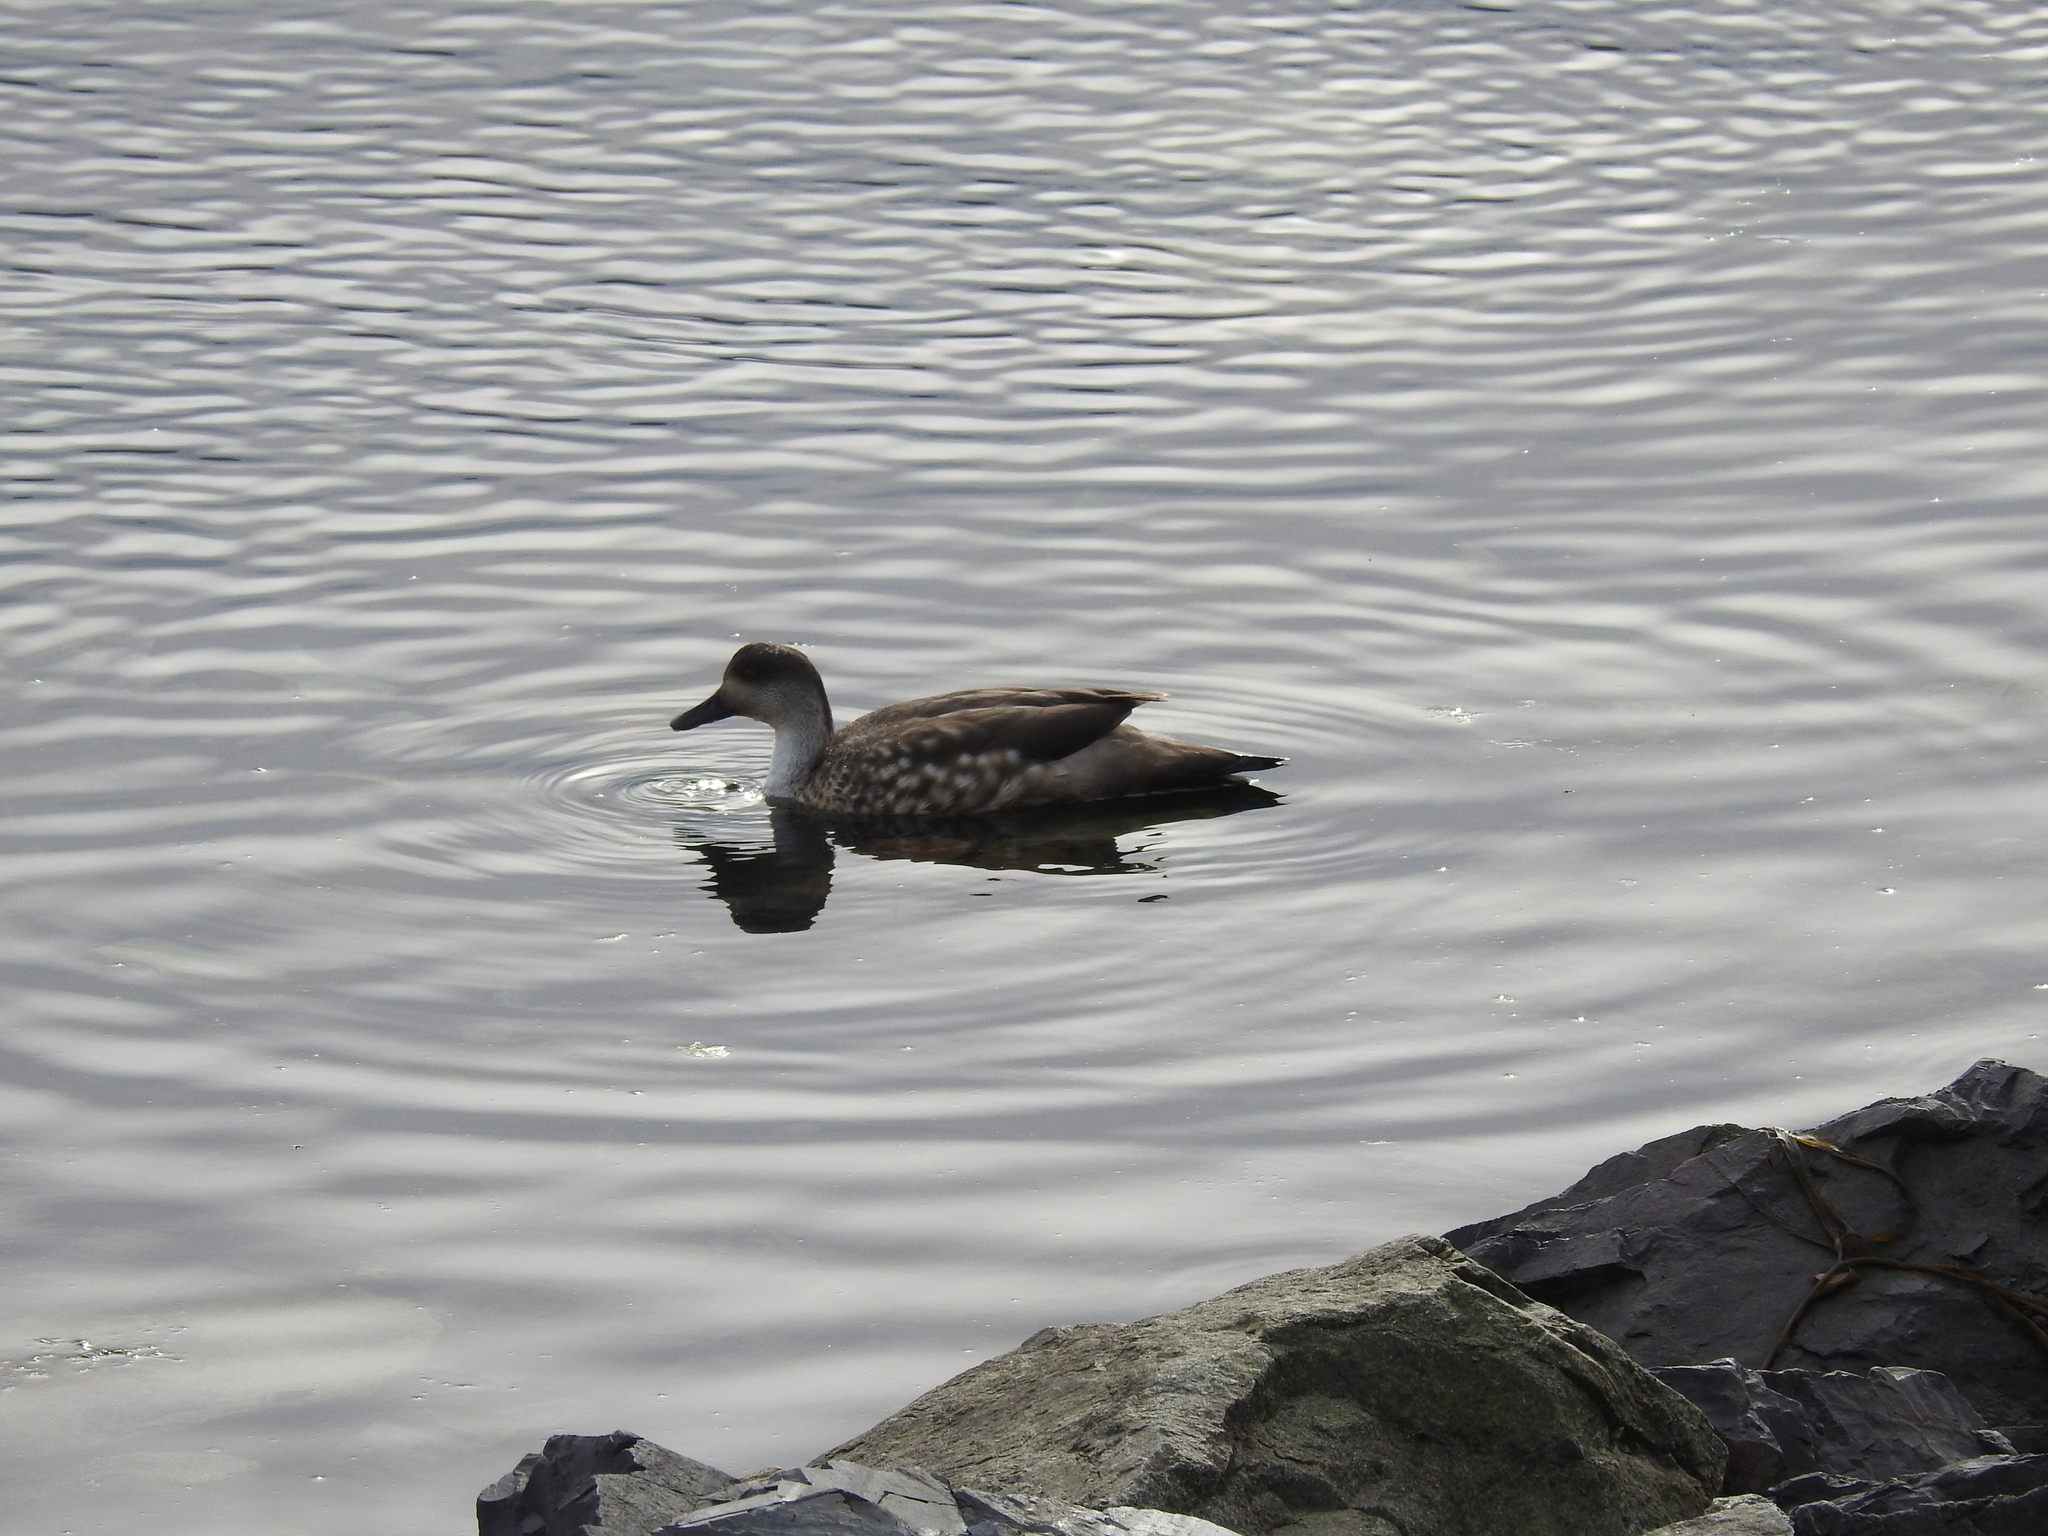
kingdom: Animalia
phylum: Chordata
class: Aves
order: Anseriformes
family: Anatidae
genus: Lophonetta
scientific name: Lophonetta specularioides
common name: Crested duck
